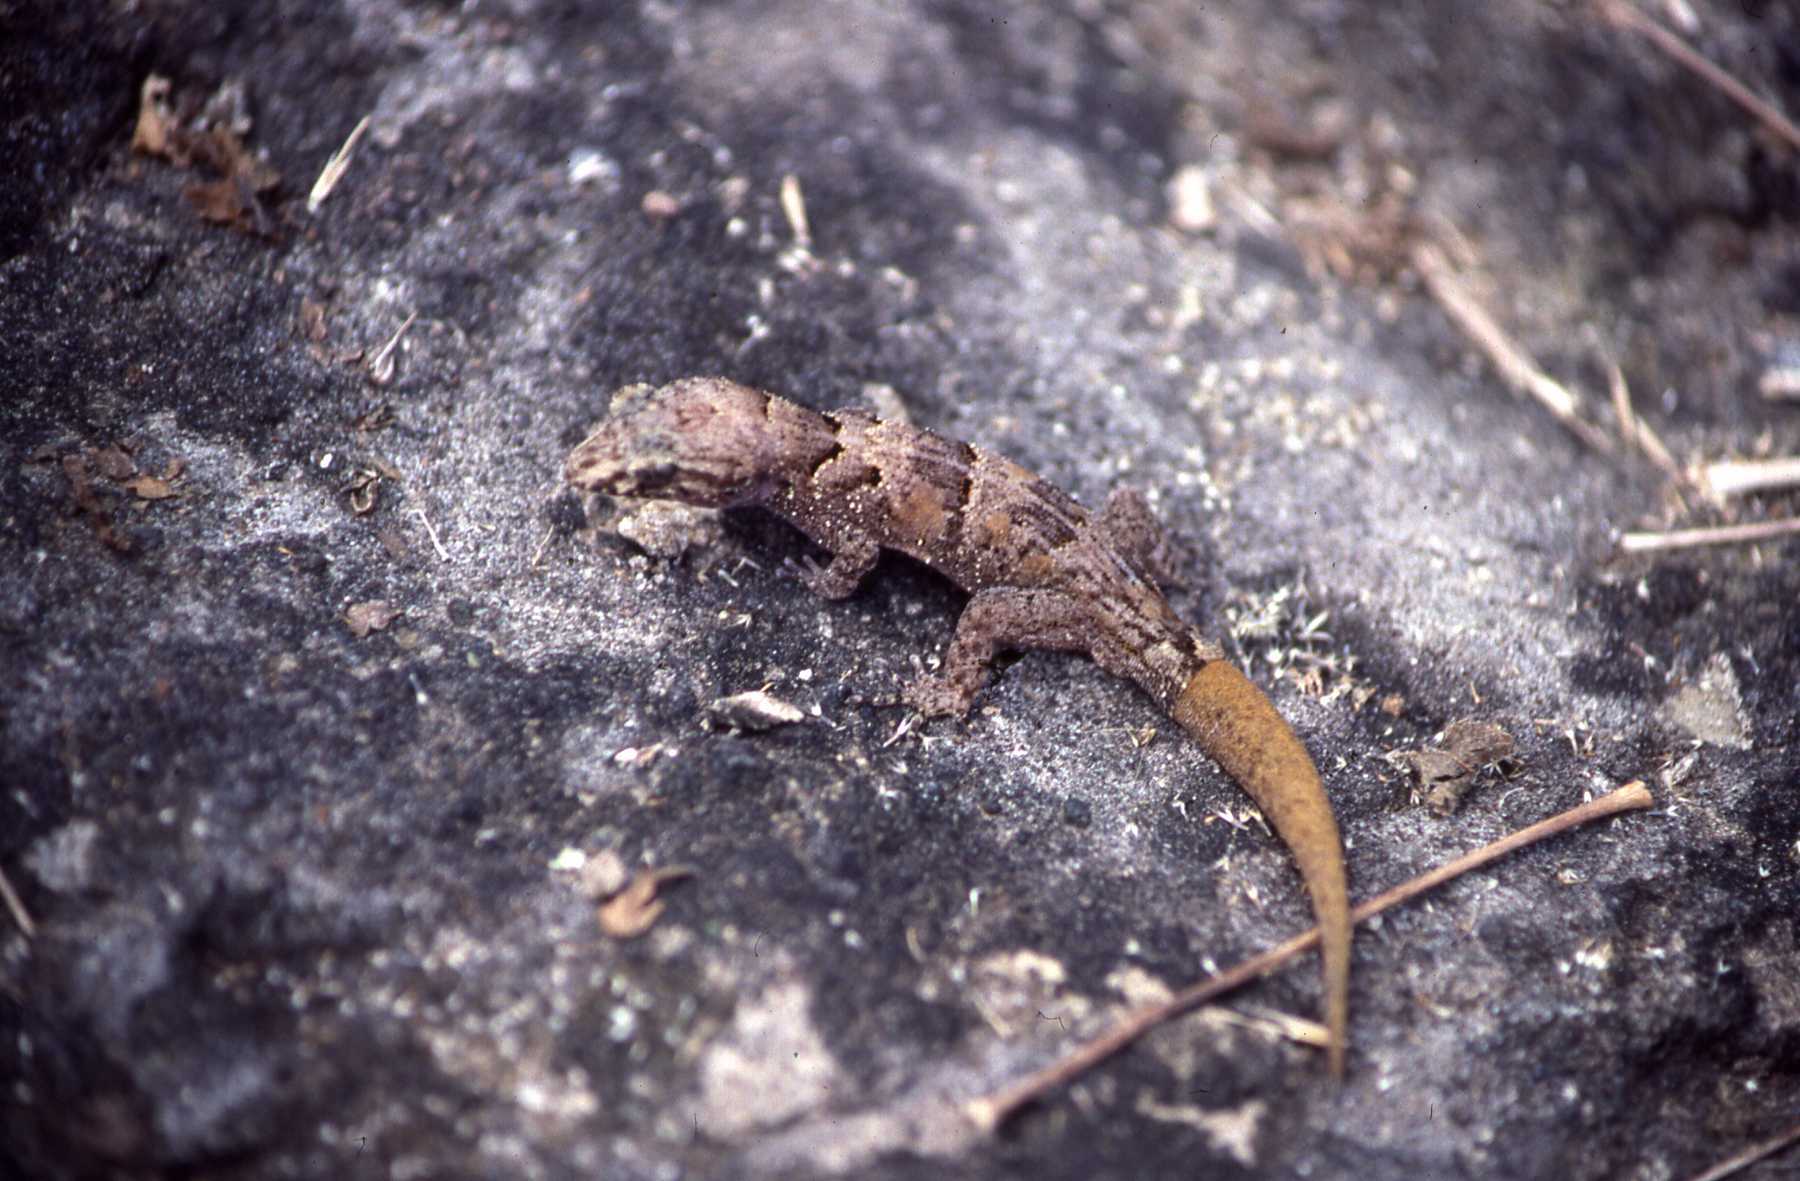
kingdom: Animalia
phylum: Chordata
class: Squamata
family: Gekkonidae
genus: Nactus
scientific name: Nactus serpensinsula
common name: Serpent island night gecko
